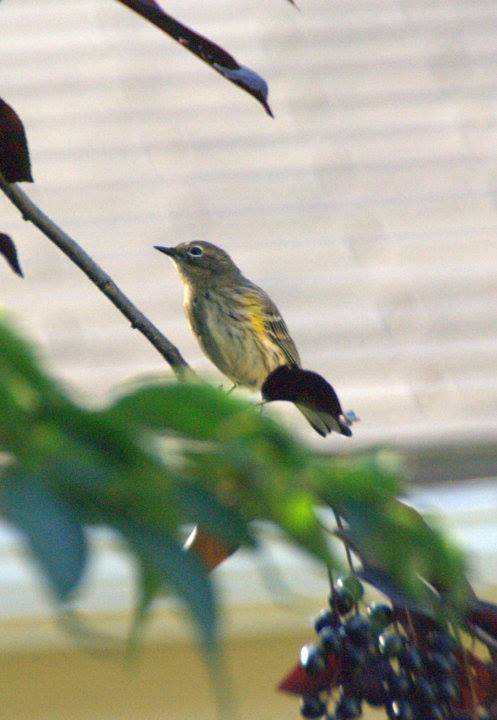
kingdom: Animalia
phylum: Chordata
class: Aves
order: Passeriformes
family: Parulidae
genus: Setophaga
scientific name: Setophaga coronata
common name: Myrtle warbler
